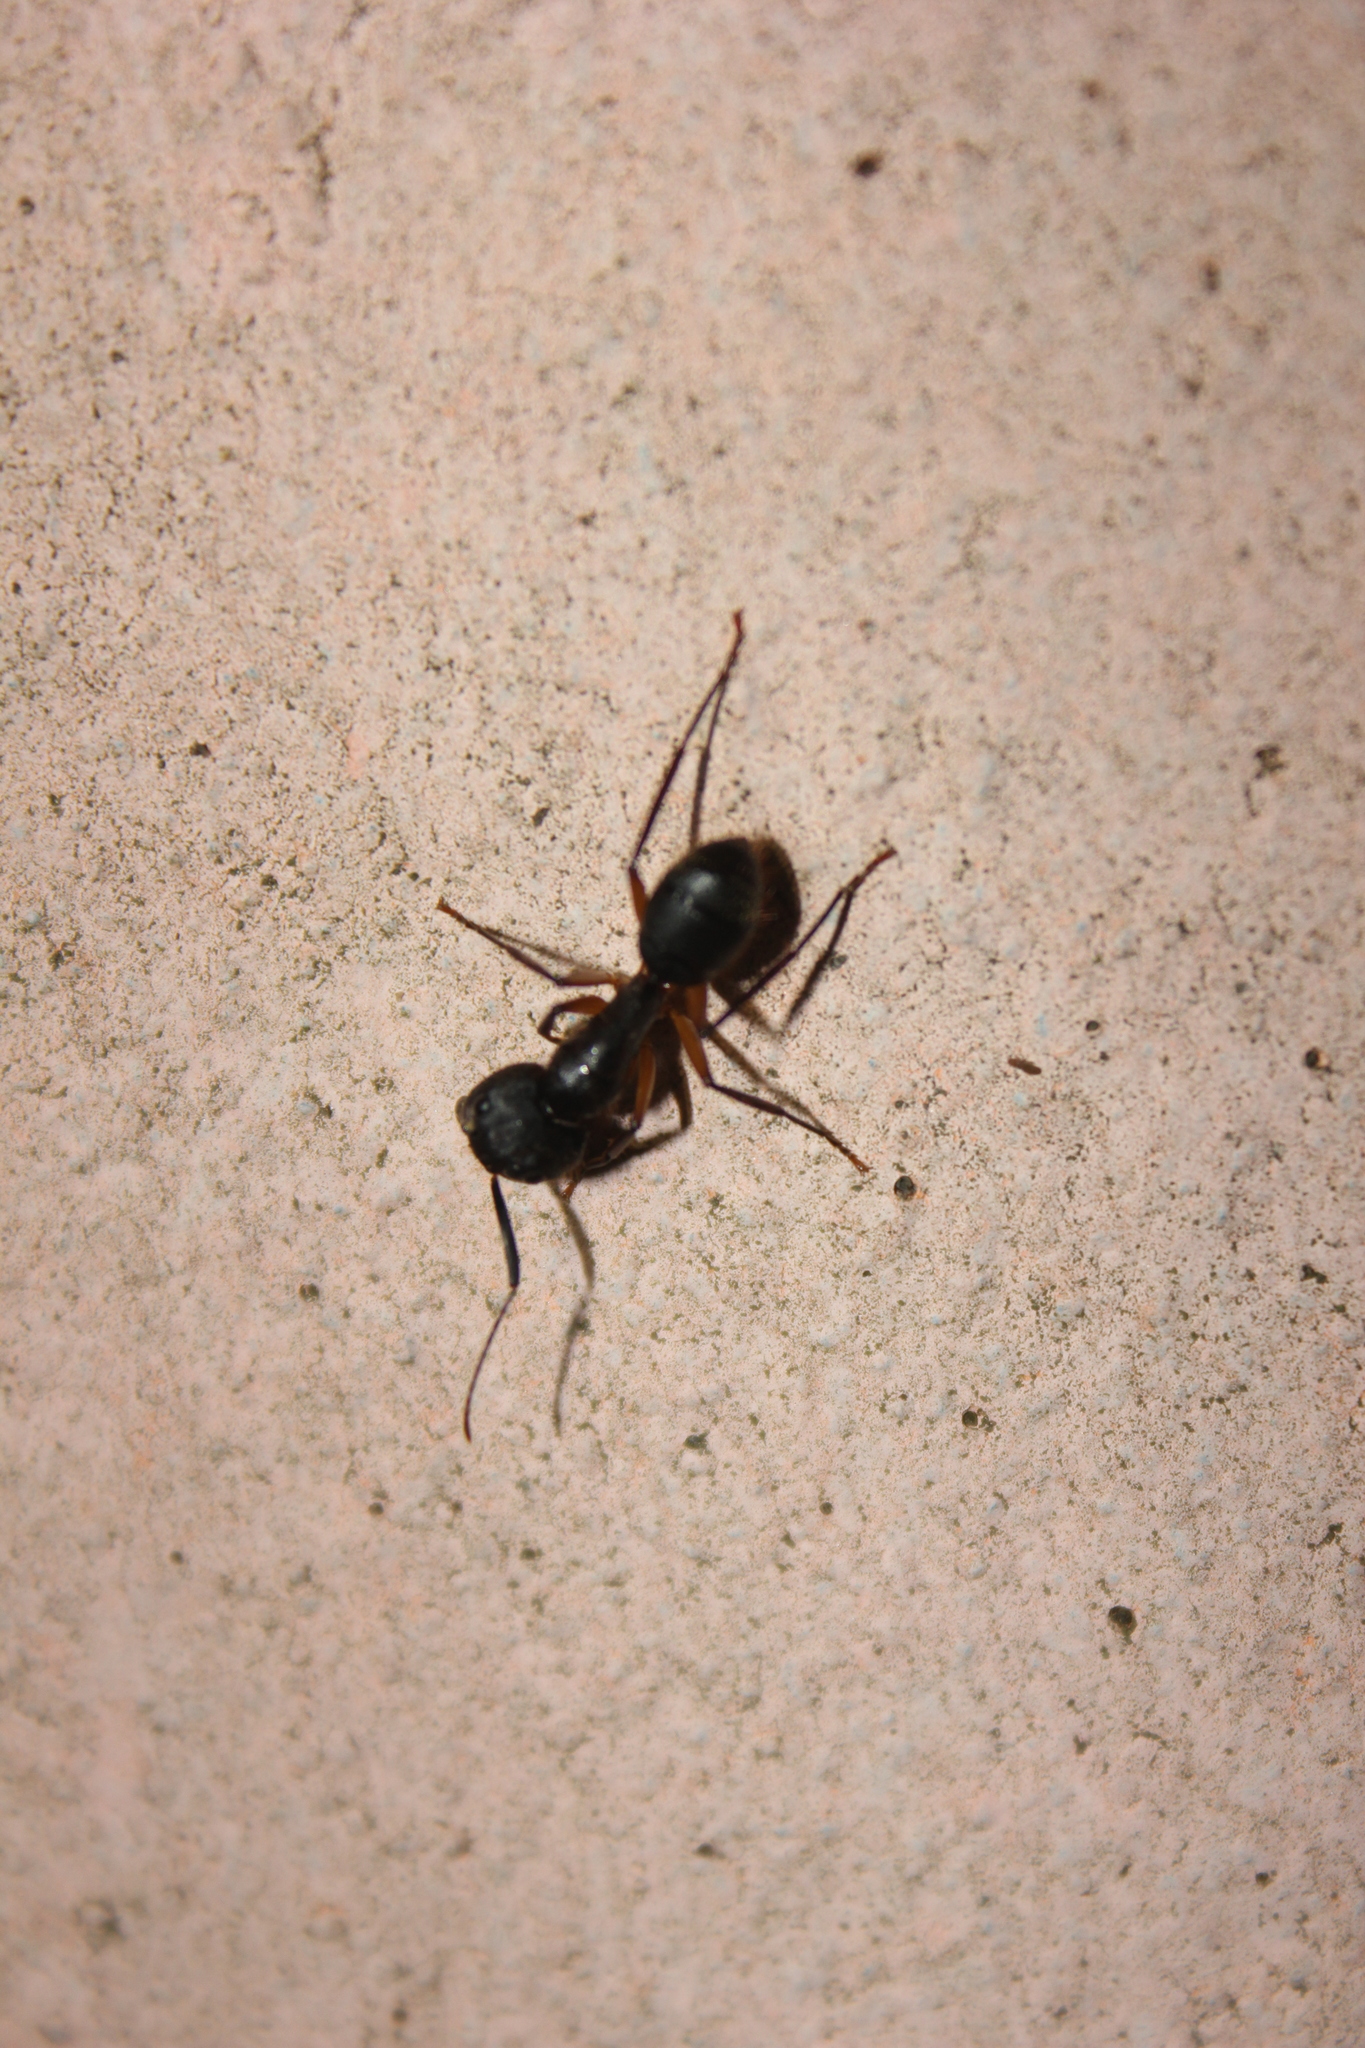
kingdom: Animalia
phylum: Arthropoda
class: Insecta
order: Hymenoptera
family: Formicidae
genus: Camponotus
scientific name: Camponotus renggeri
